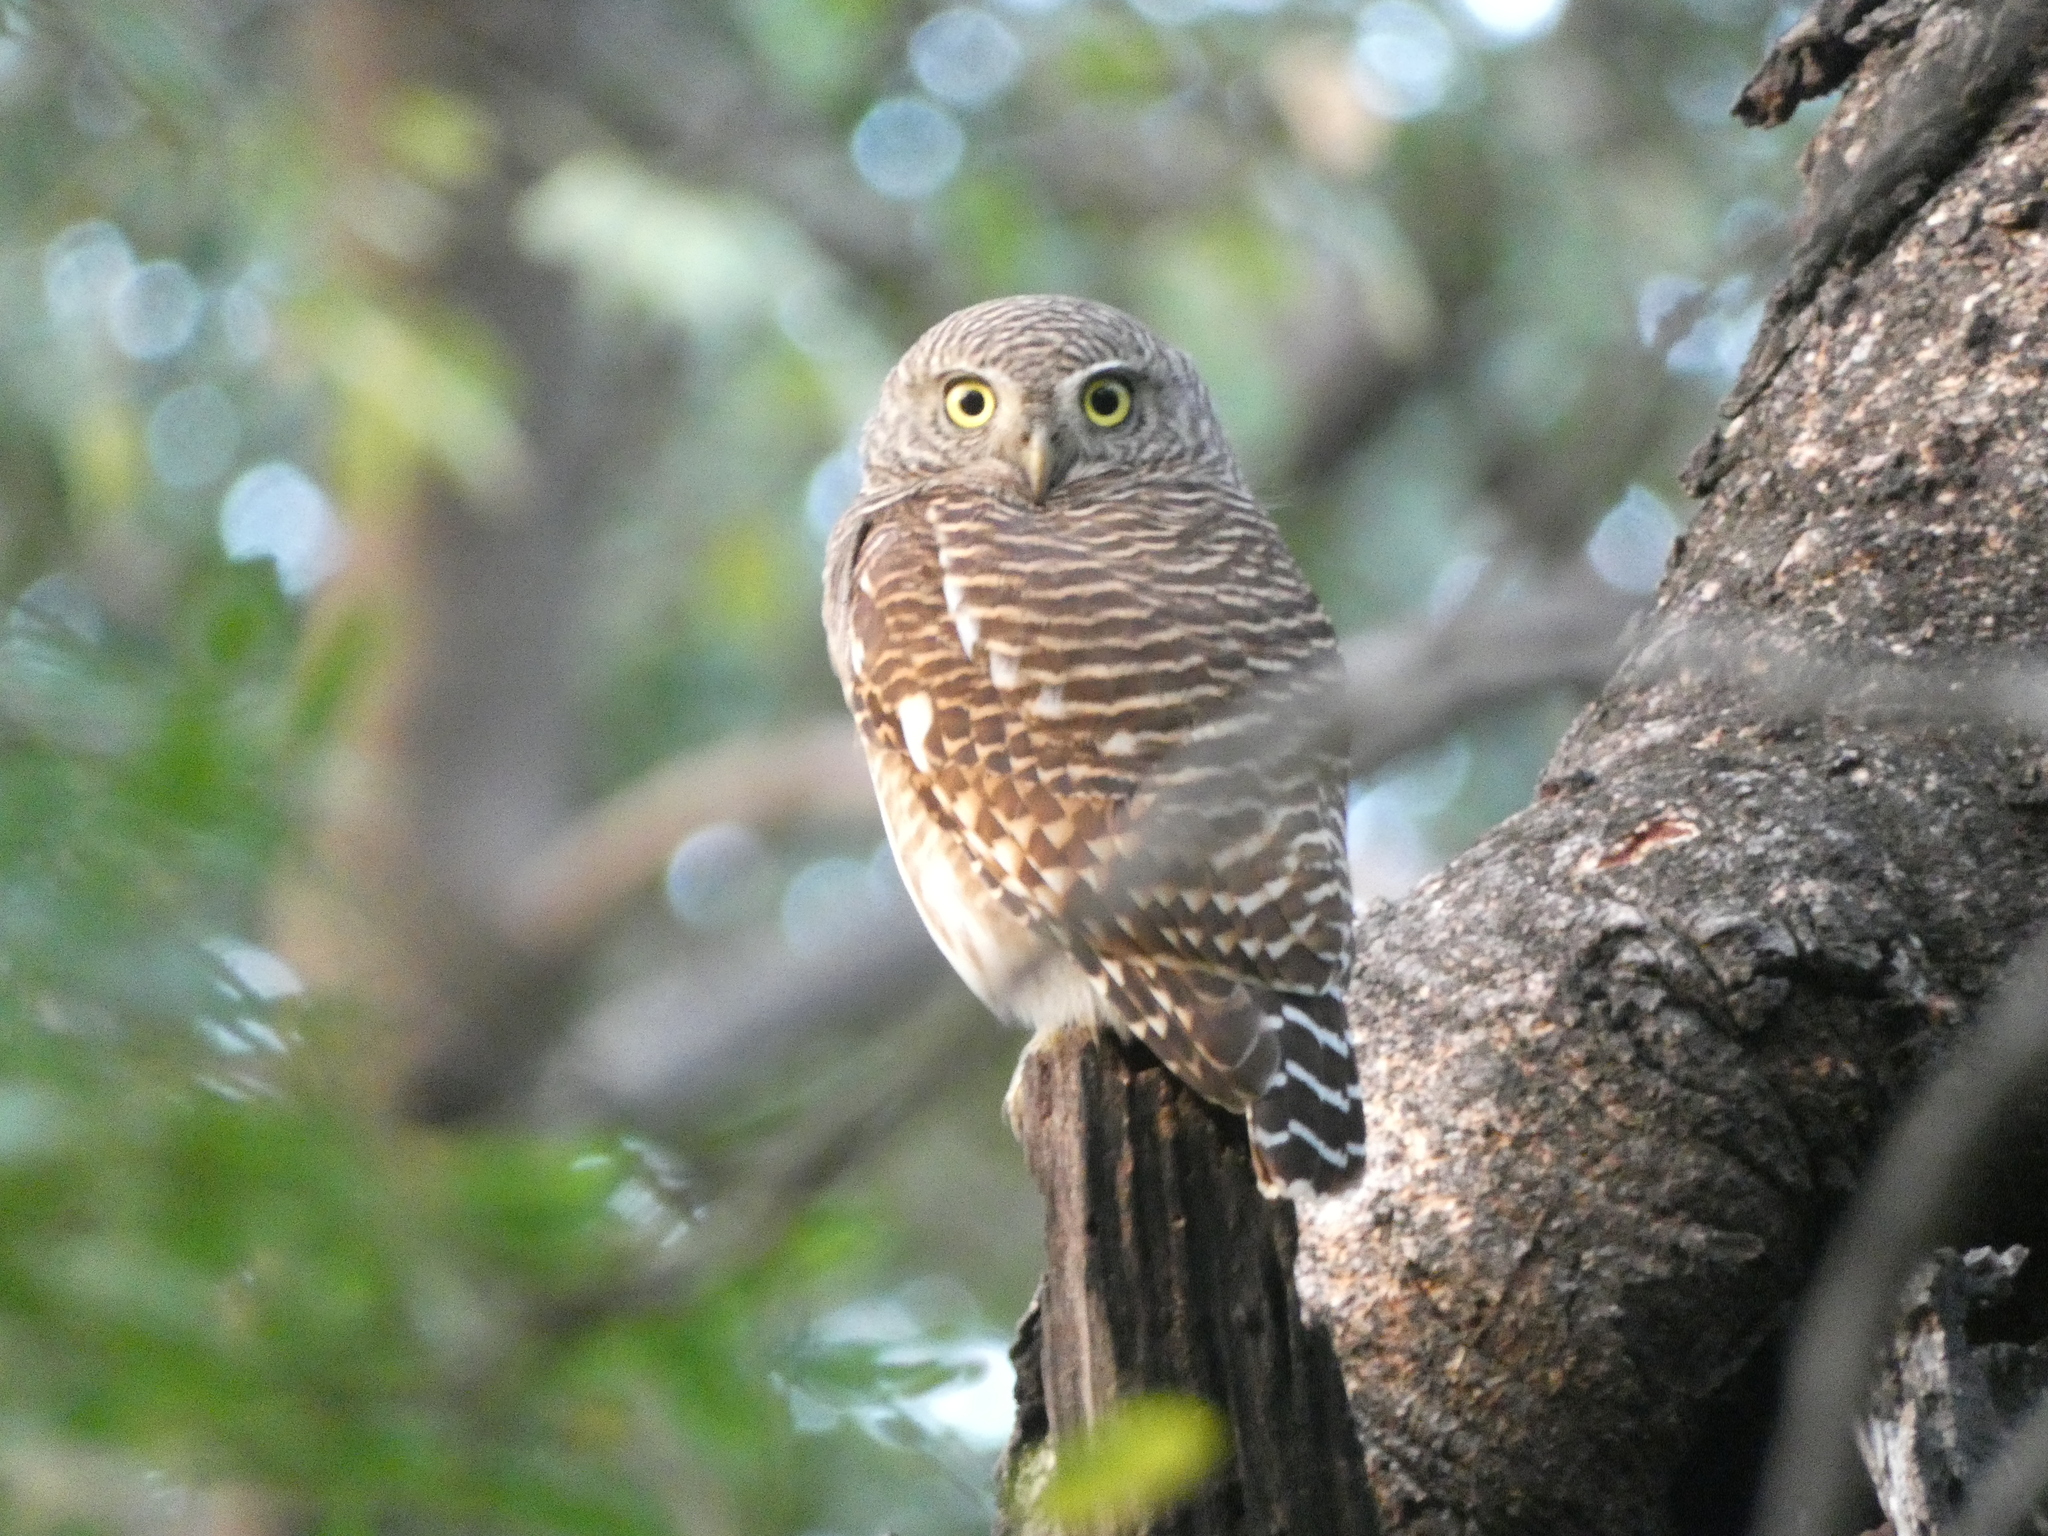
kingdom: Animalia
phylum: Chordata
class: Aves
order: Strigiformes
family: Strigidae
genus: Glaucidium
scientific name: Glaucidium cuculoides
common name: Asian barred owlet
